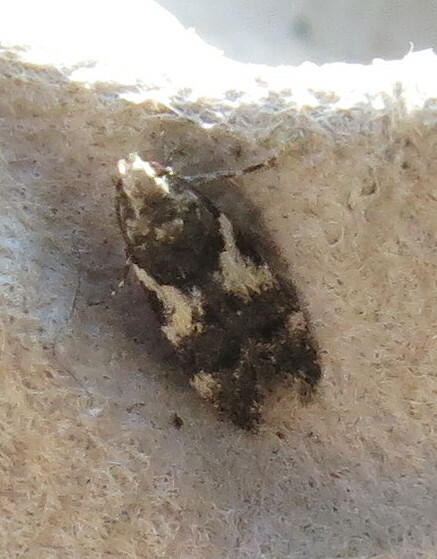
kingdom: Animalia
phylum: Arthropoda
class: Insecta
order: Lepidoptera
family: Gelechiidae
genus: Teleiodes
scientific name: Teleiodes luculella
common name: Crescent groundling
